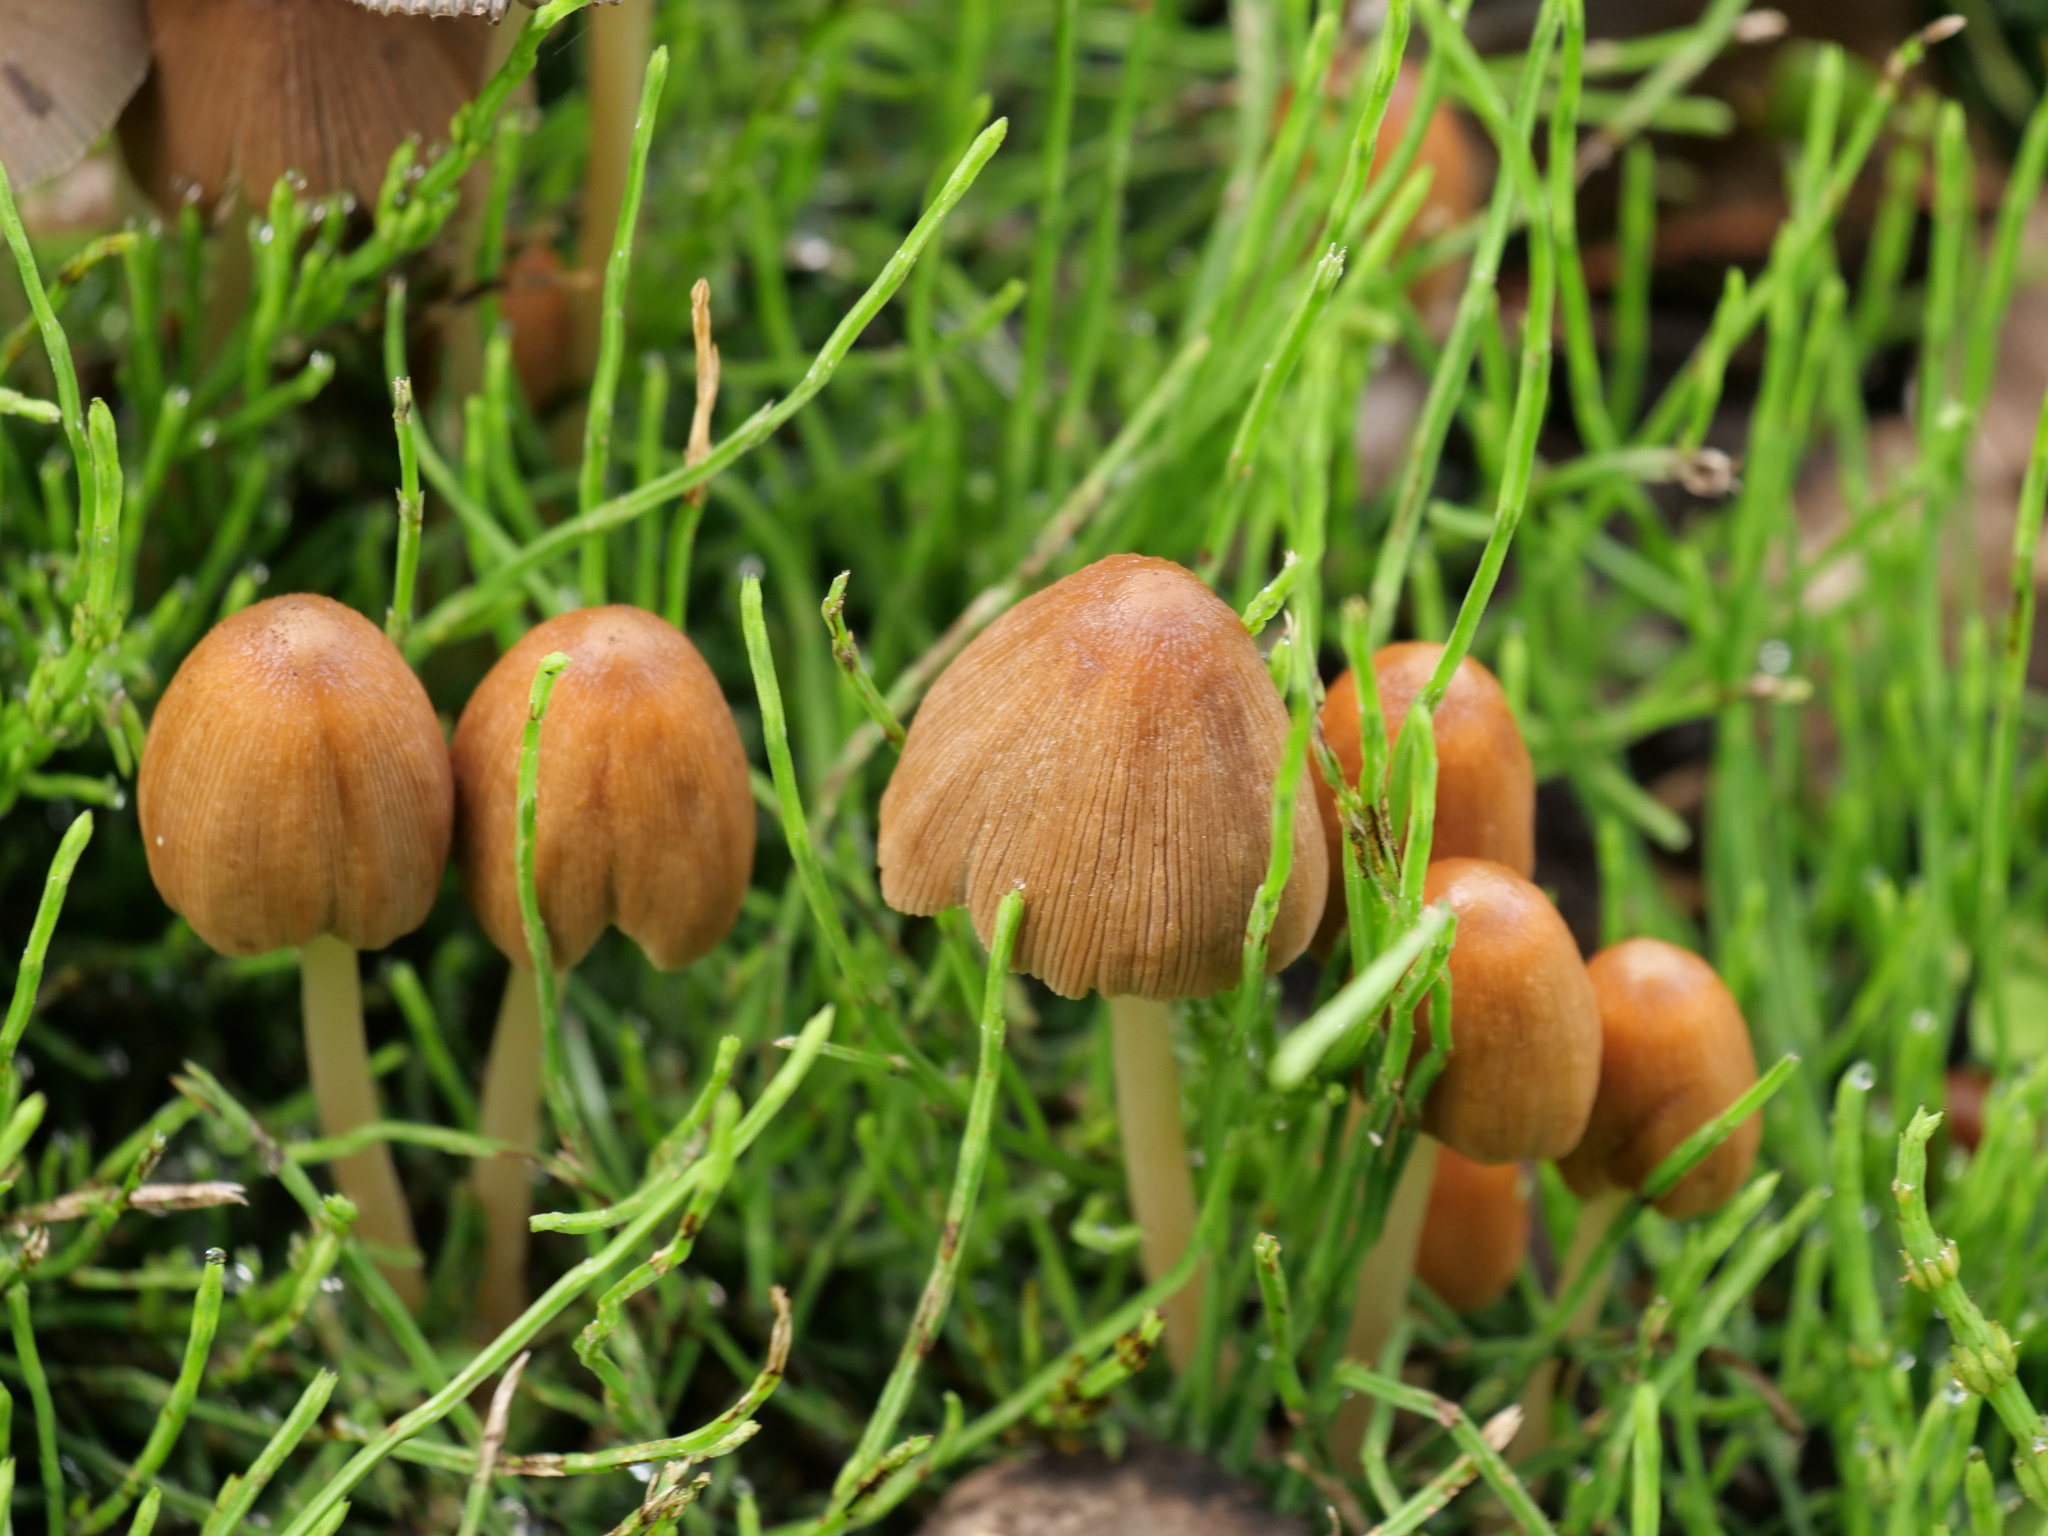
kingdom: Fungi
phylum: Basidiomycota
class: Agaricomycetes
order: Agaricales
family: Psathyrellaceae
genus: Coprinellus
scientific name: Coprinellus micaceus
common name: Glistening ink-cap
